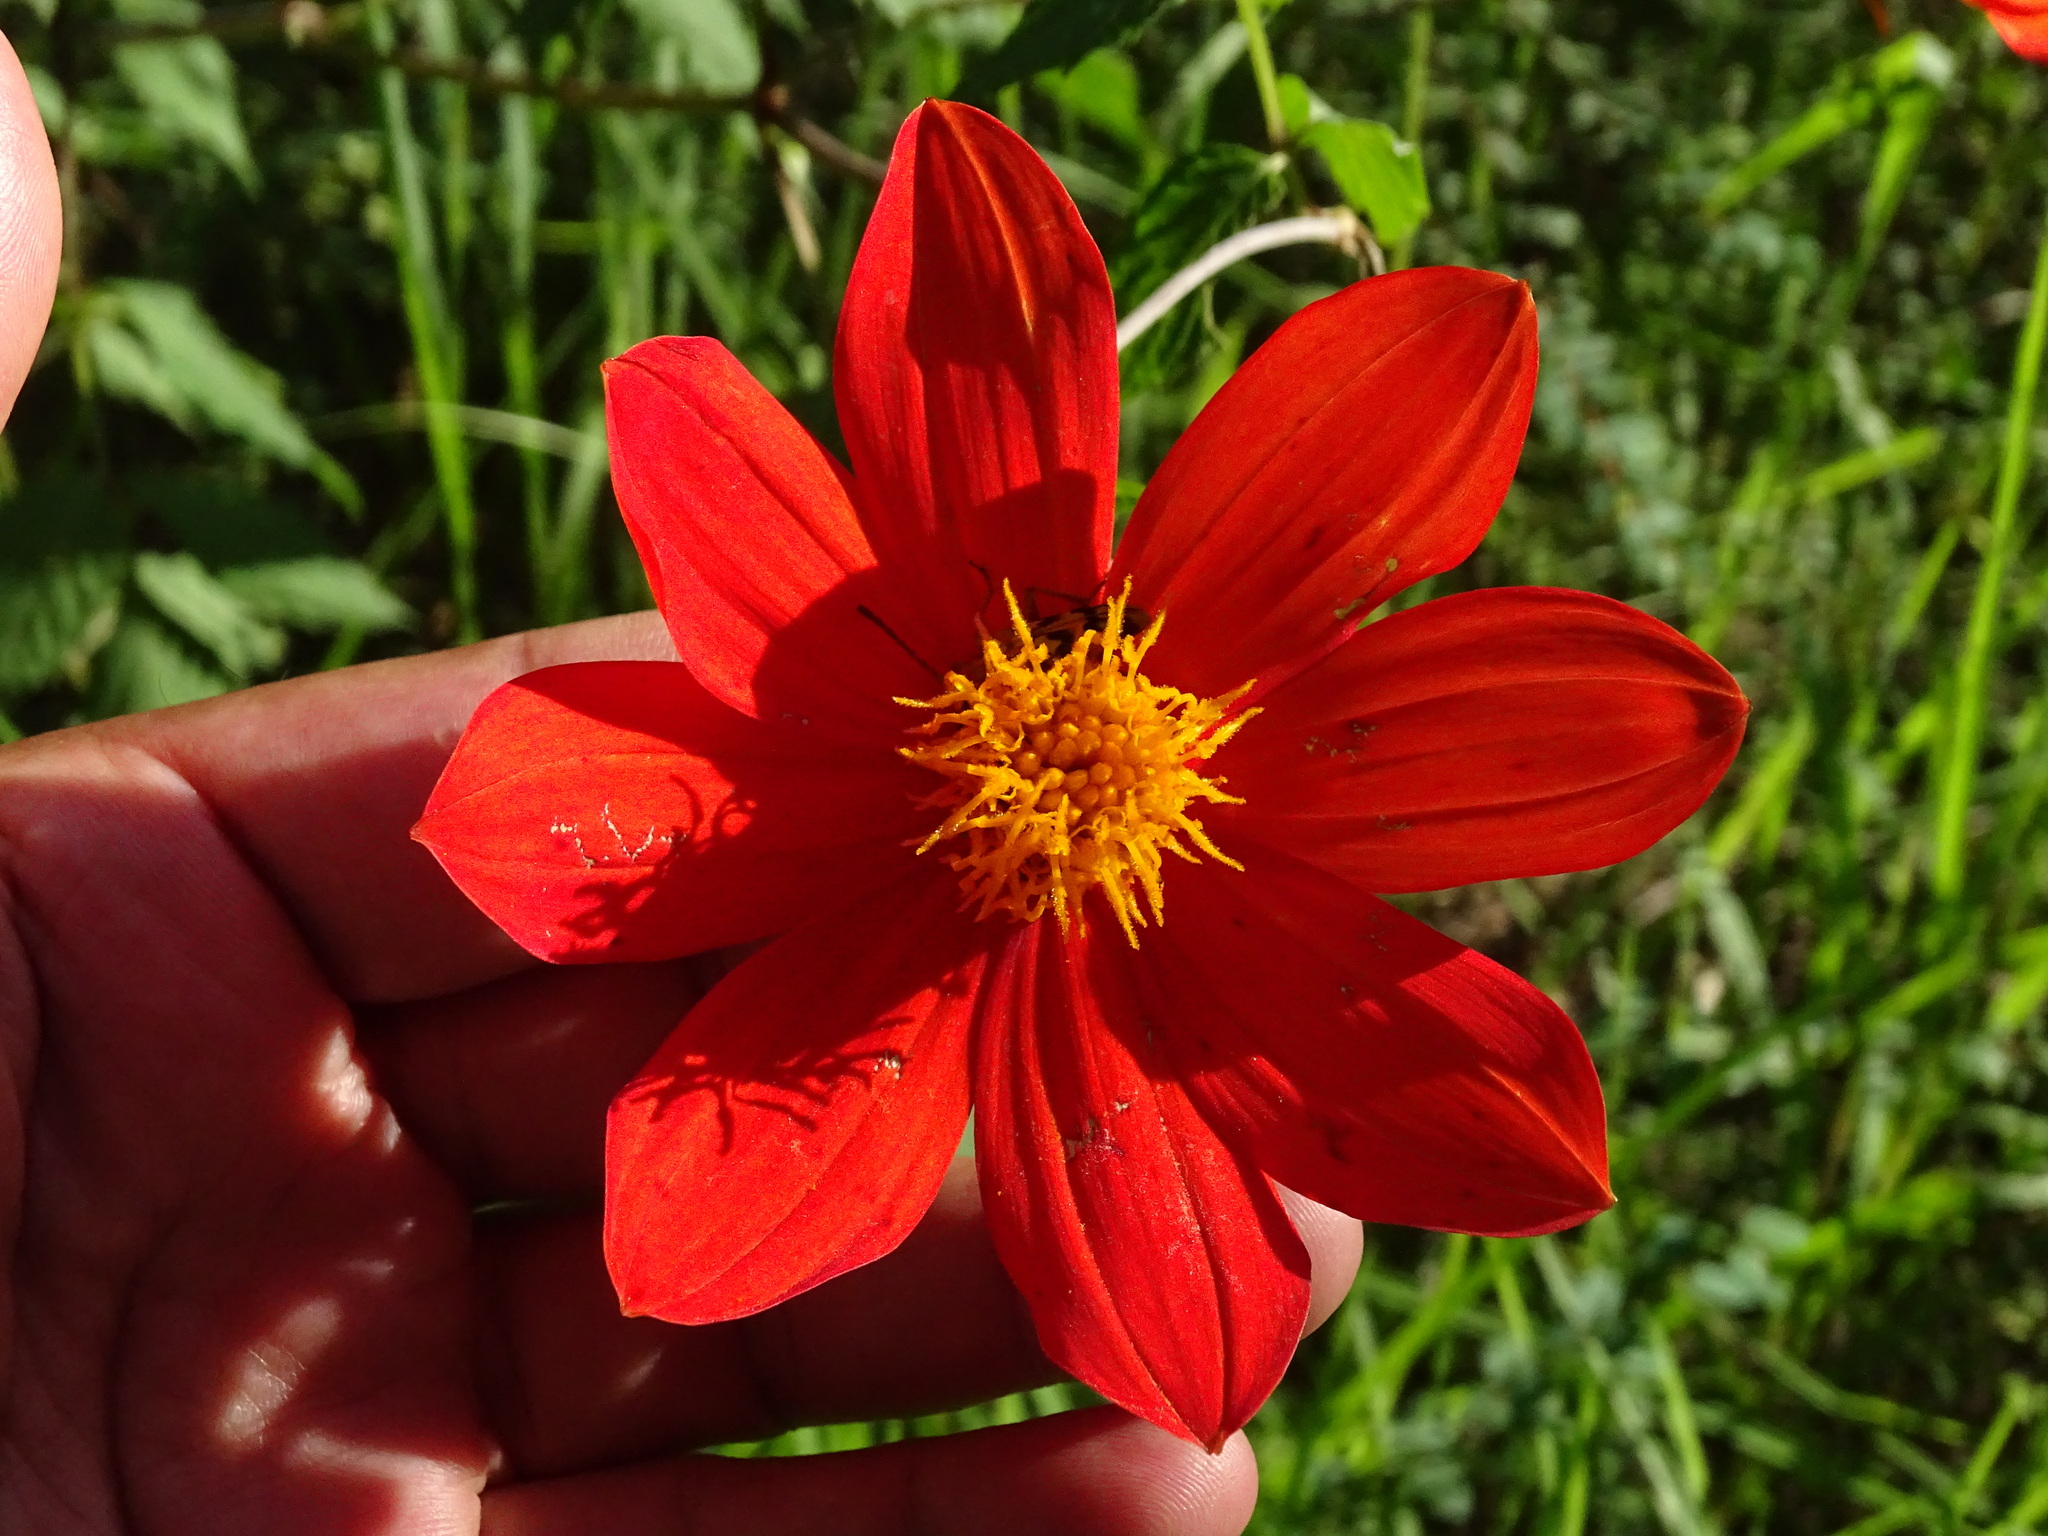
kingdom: Plantae
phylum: Tracheophyta
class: Magnoliopsida
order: Asterales
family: Asteraceae
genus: Dahlia
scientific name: Dahlia coccinea
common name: Red dahlia
